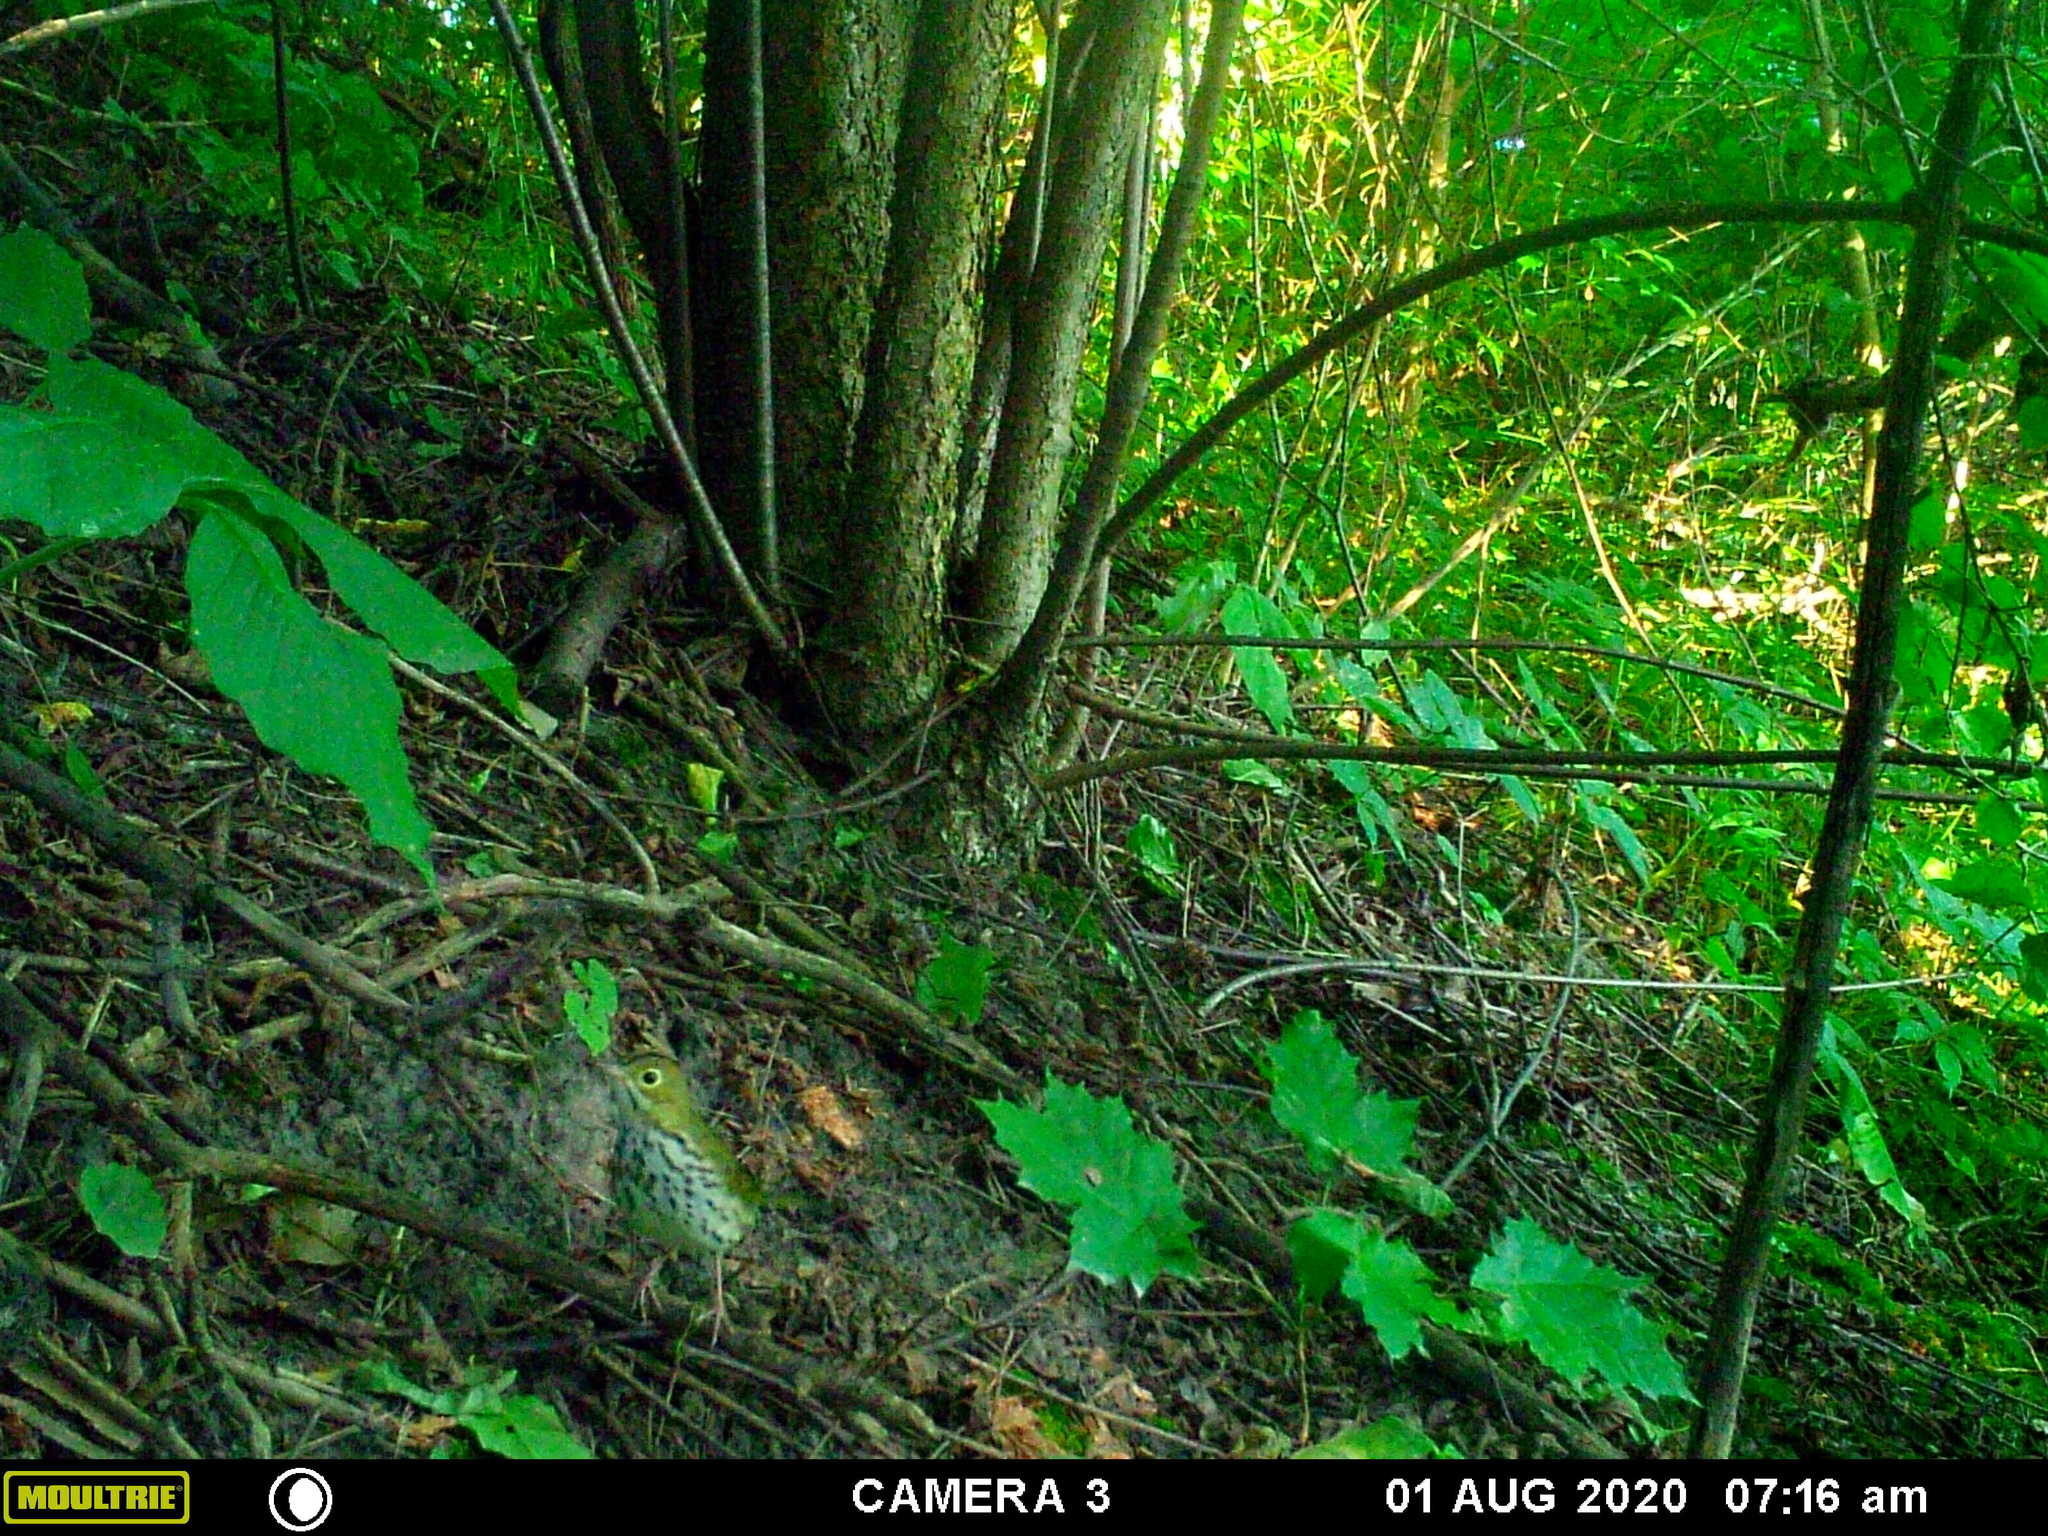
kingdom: Animalia
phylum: Chordata
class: Aves
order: Passeriformes
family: Parulidae
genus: Seiurus
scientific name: Seiurus aurocapilla
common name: Ovenbird
